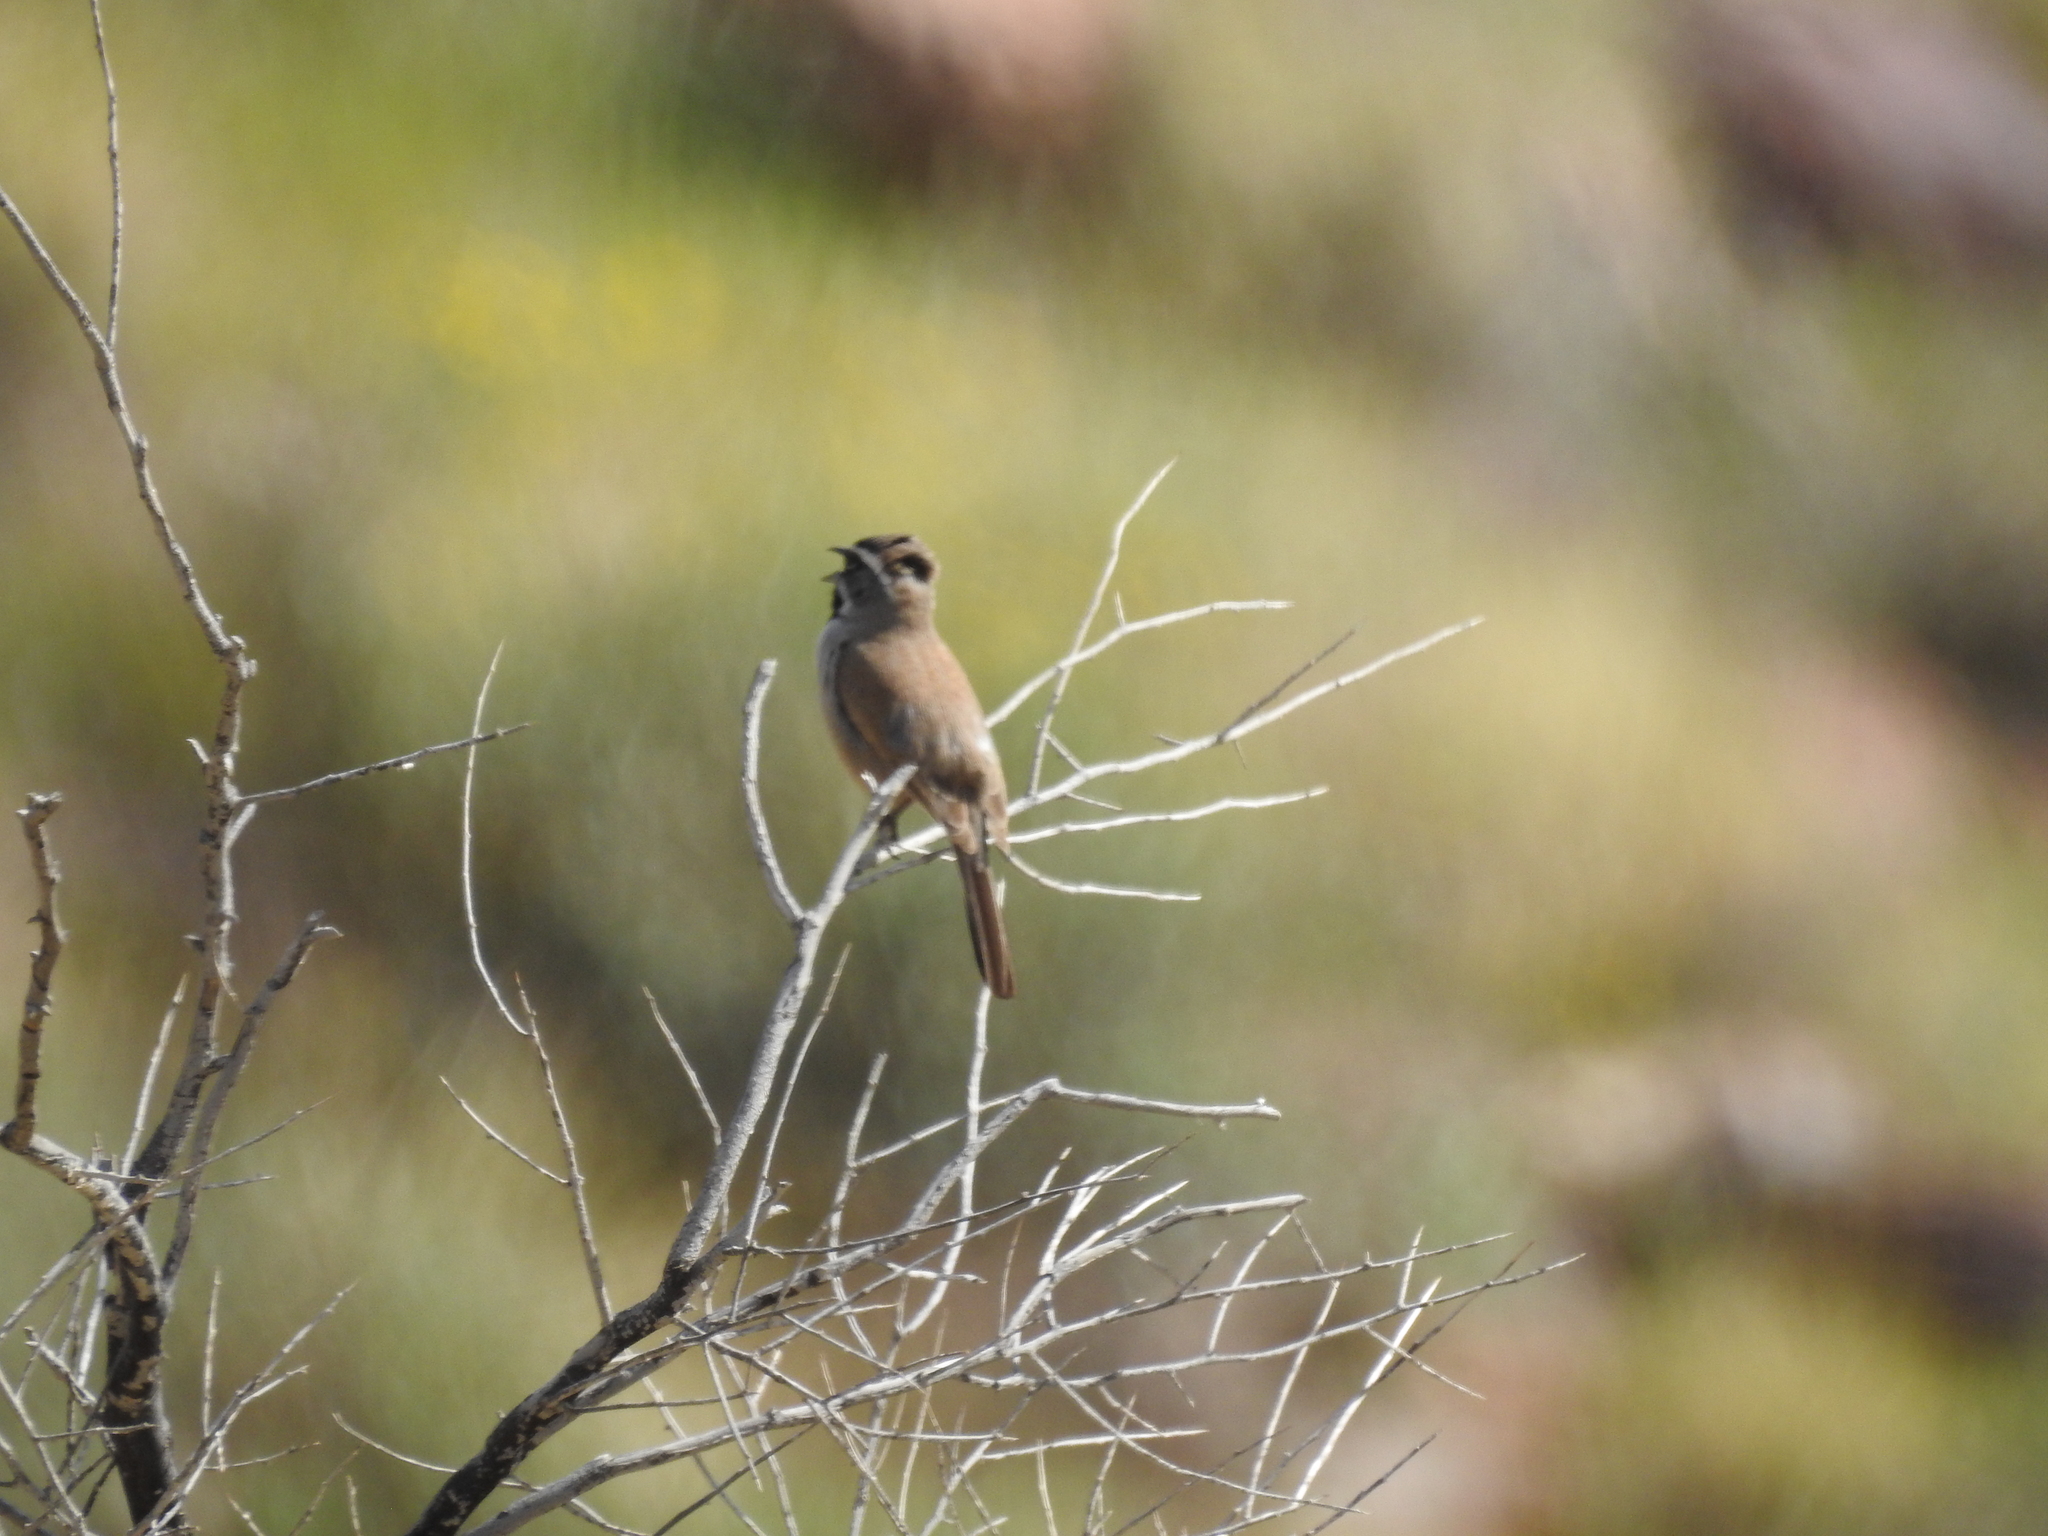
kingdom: Animalia
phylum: Chordata
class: Aves
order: Passeriformes
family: Passerellidae
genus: Amphispiza
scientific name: Amphispiza bilineata
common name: Black-throated sparrow
